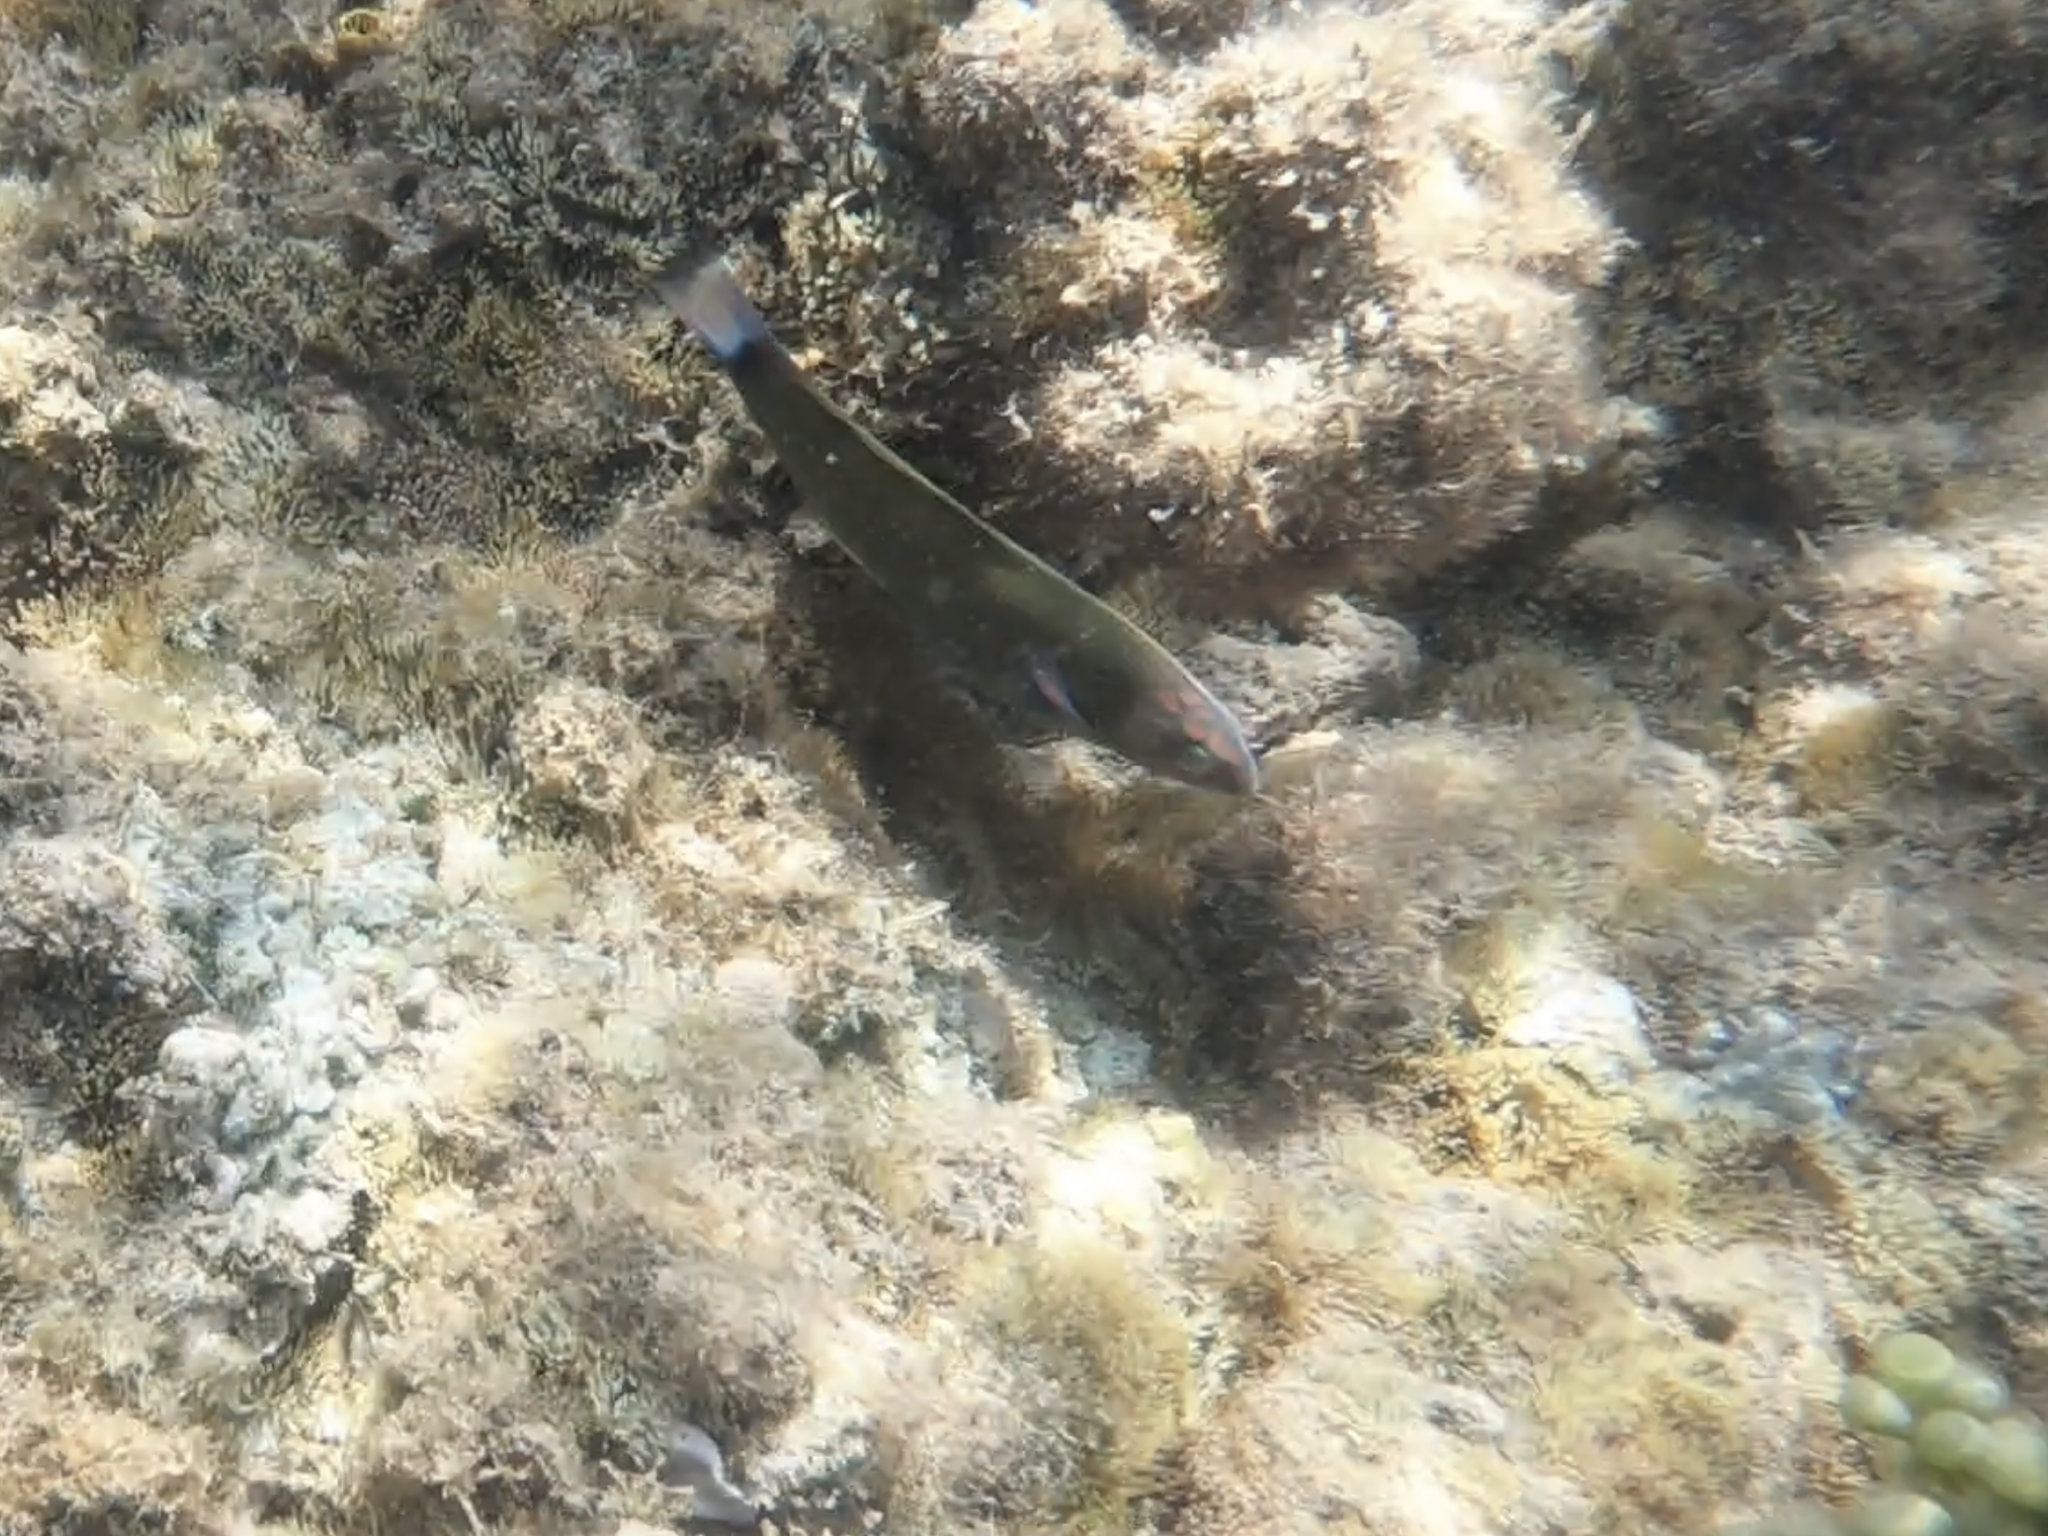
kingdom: Animalia
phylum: Chordata
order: Perciformes
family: Labridae
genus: Thalassoma
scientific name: Thalassoma lunare
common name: Blue wrasse
